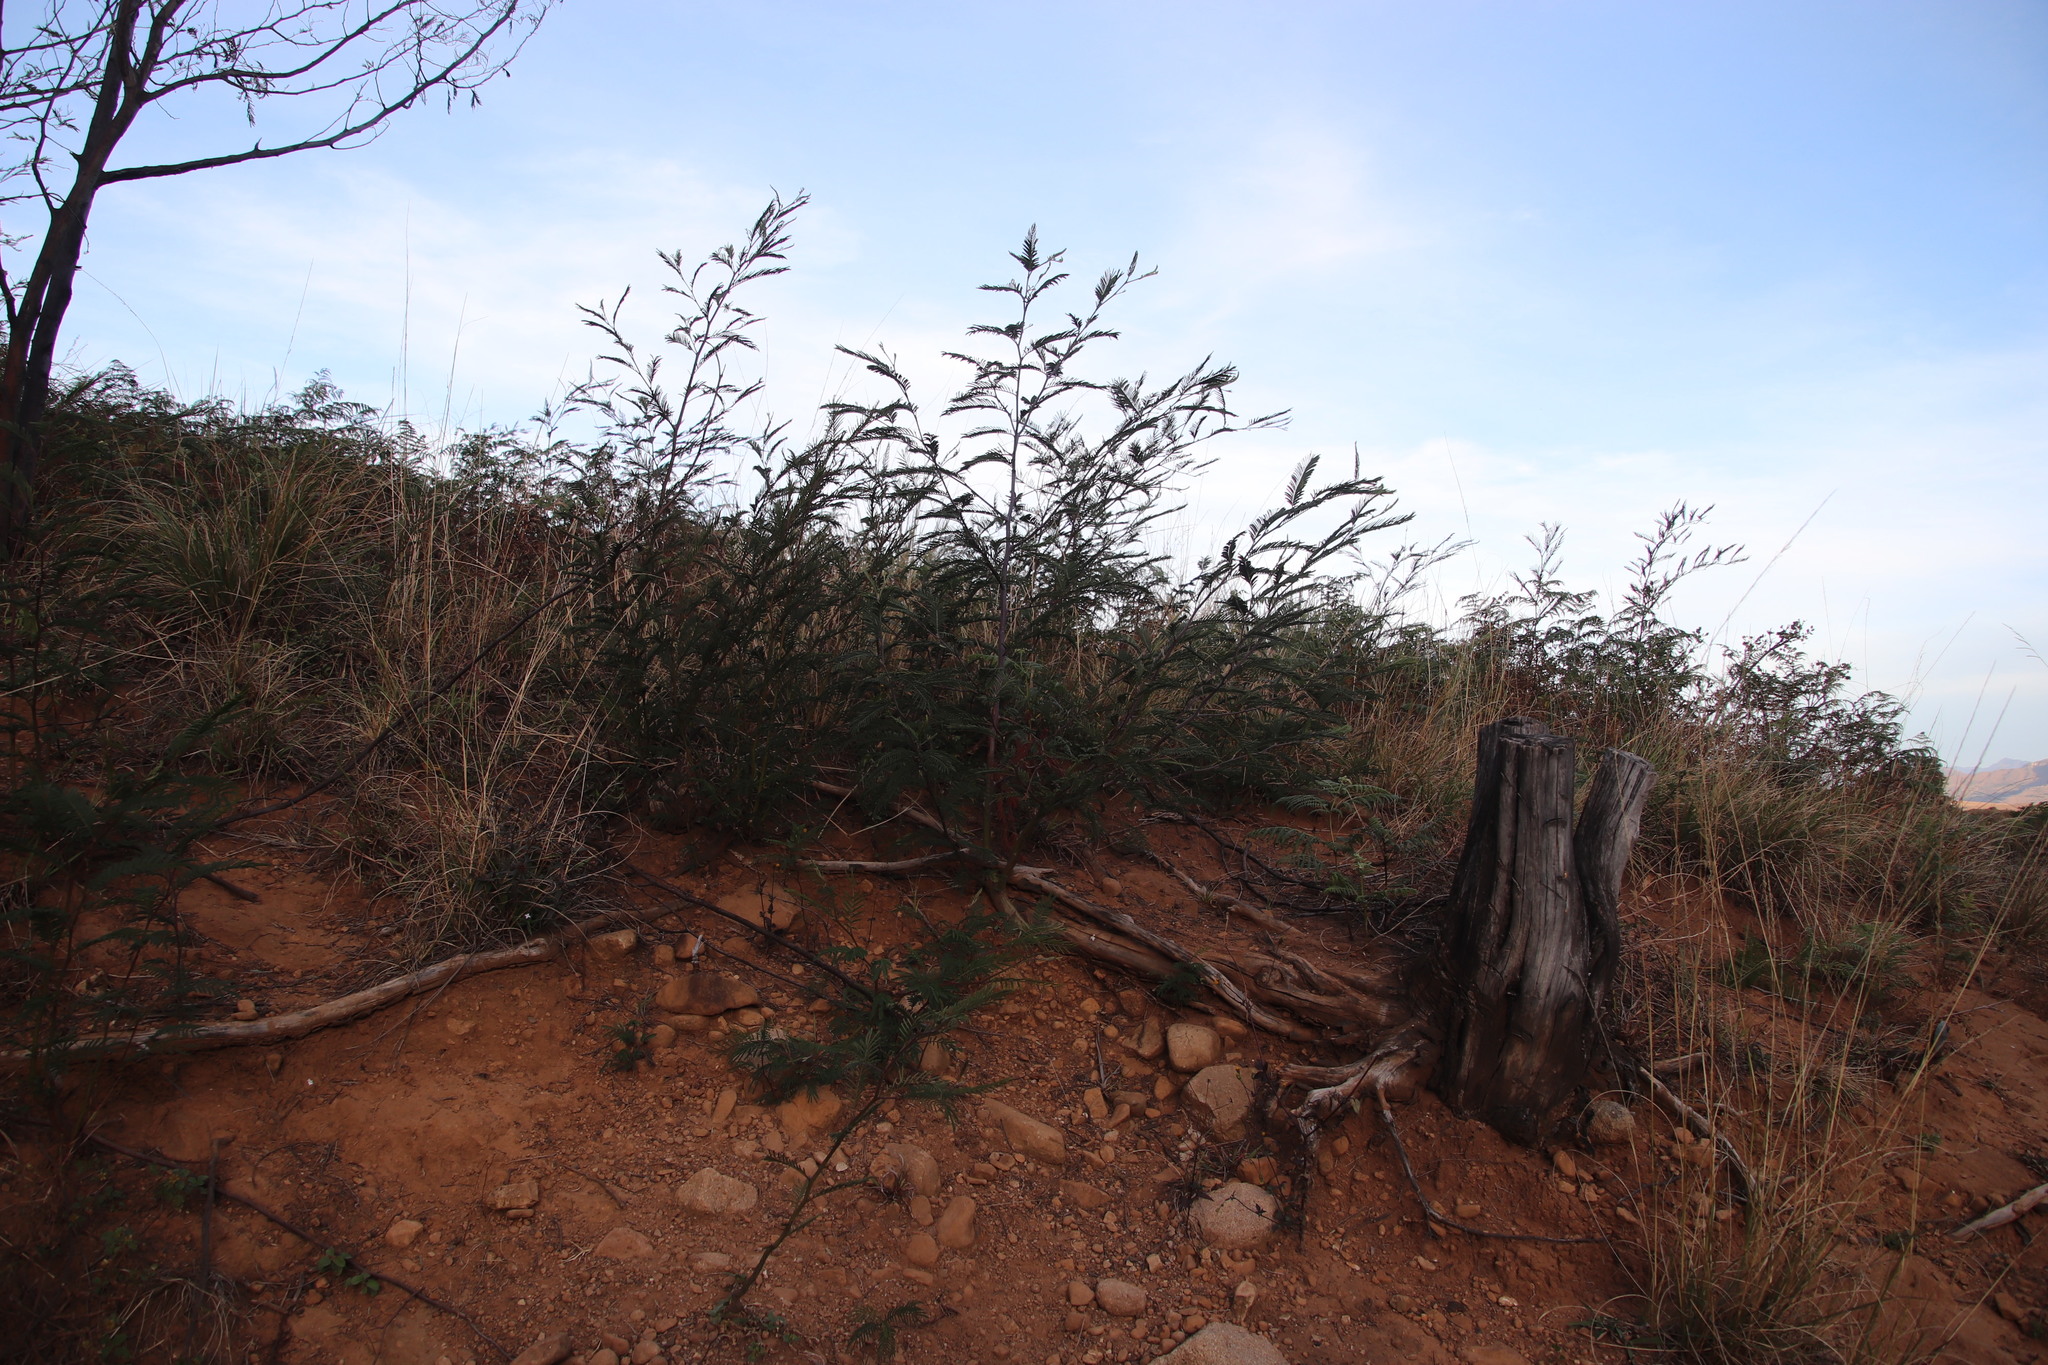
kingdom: Plantae
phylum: Tracheophyta
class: Magnoliopsida
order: Fabales
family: Fabaceae
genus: Acacia
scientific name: Acacia dealbata
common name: Silver wattle
